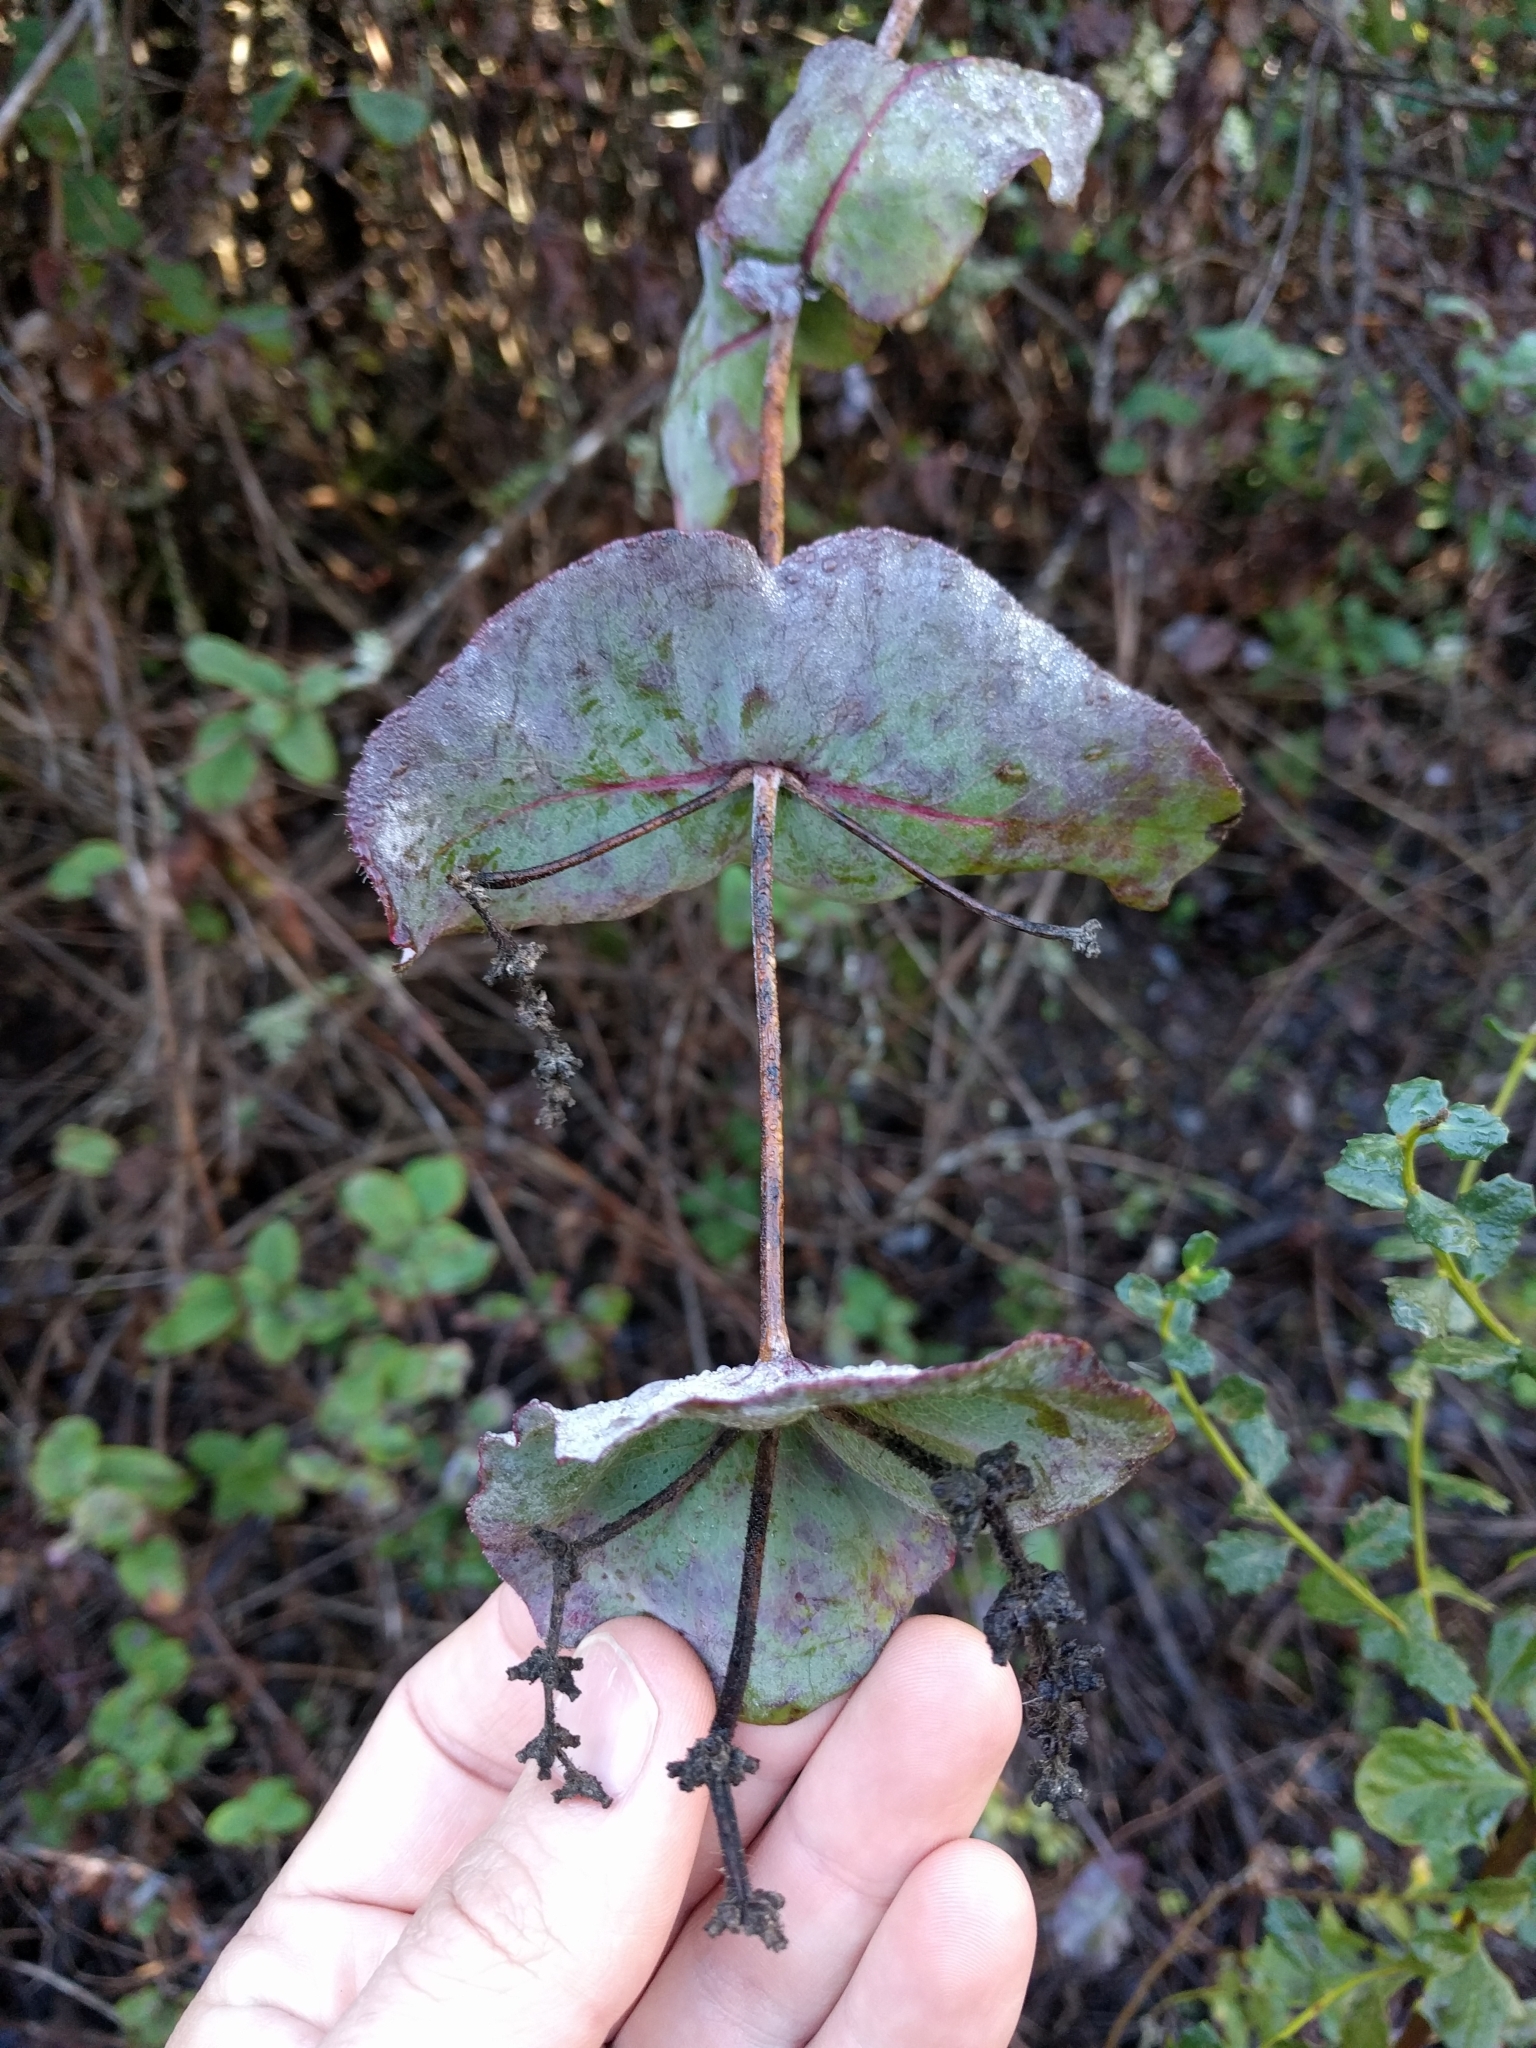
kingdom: Plantae
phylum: Tracheophyta
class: Magnoliopsida
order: Dipsacales
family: Caprifoliaceae
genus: Lonicera
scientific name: Lonicera hispidula
